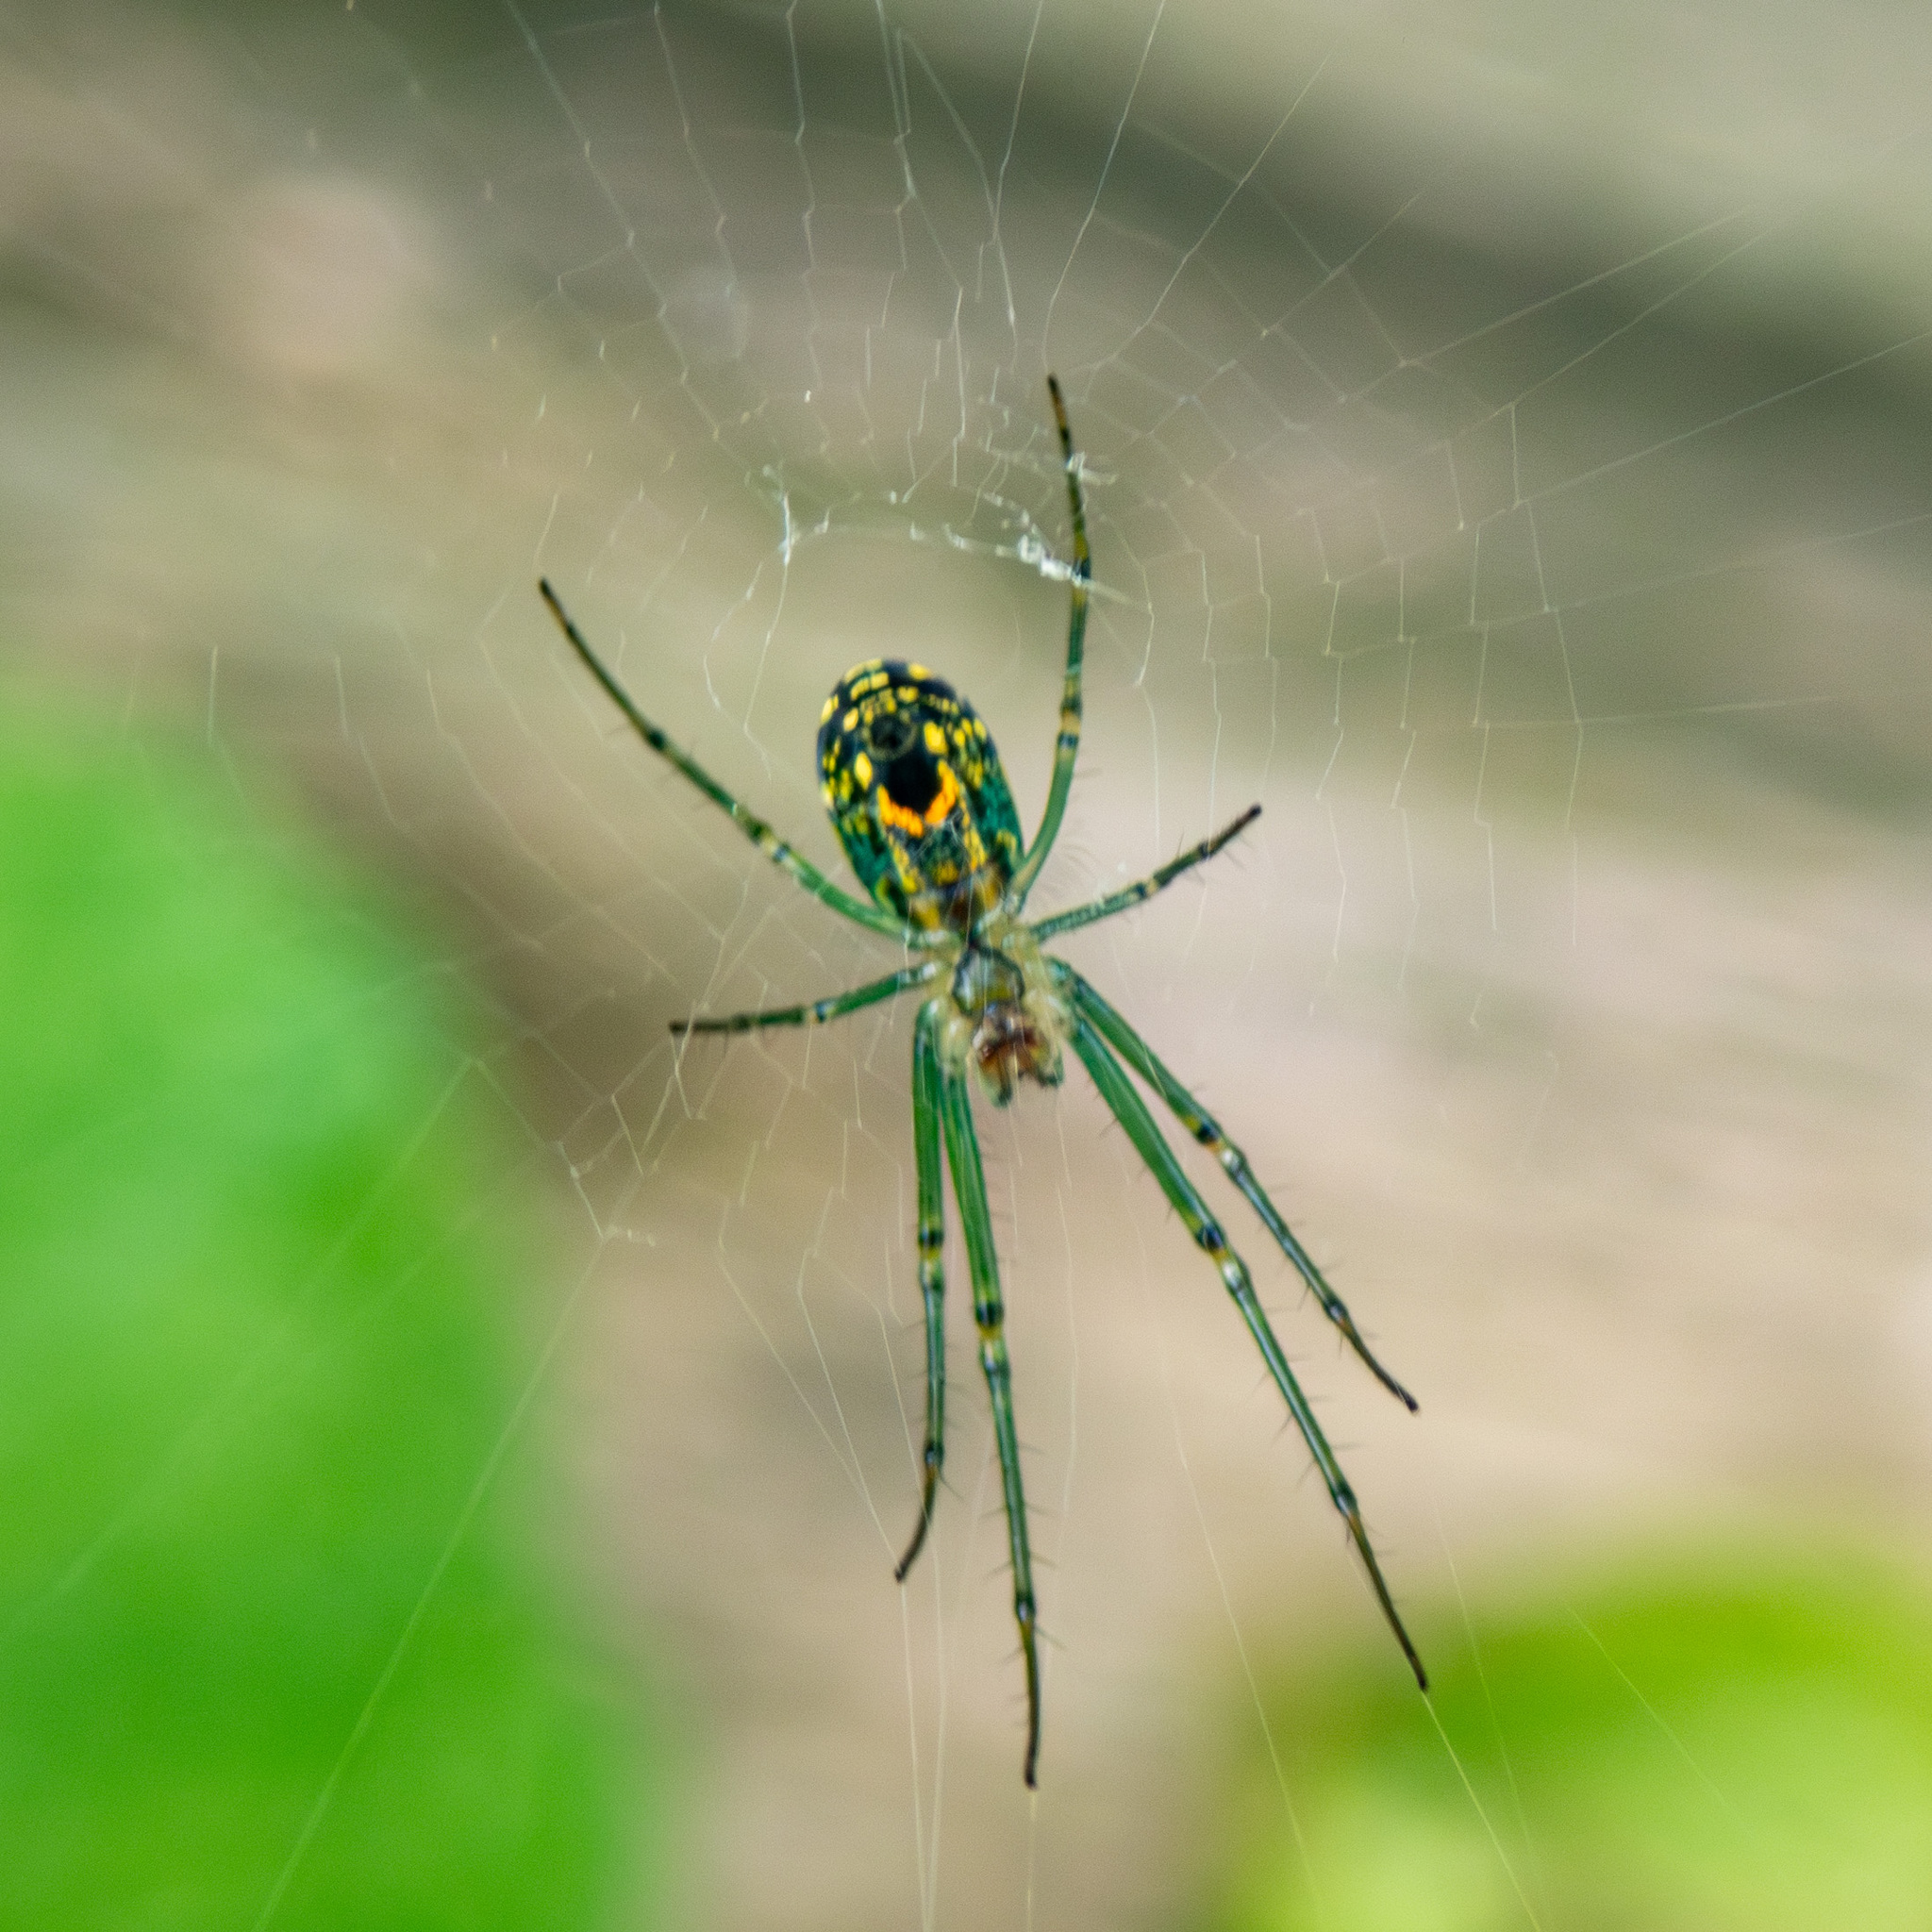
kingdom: Animalia
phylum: Arthropoda
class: Arachnida
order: Araneae
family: Tetragnathidae
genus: Leucauge
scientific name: Leucauge venusta
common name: Longjawed orb weavers
